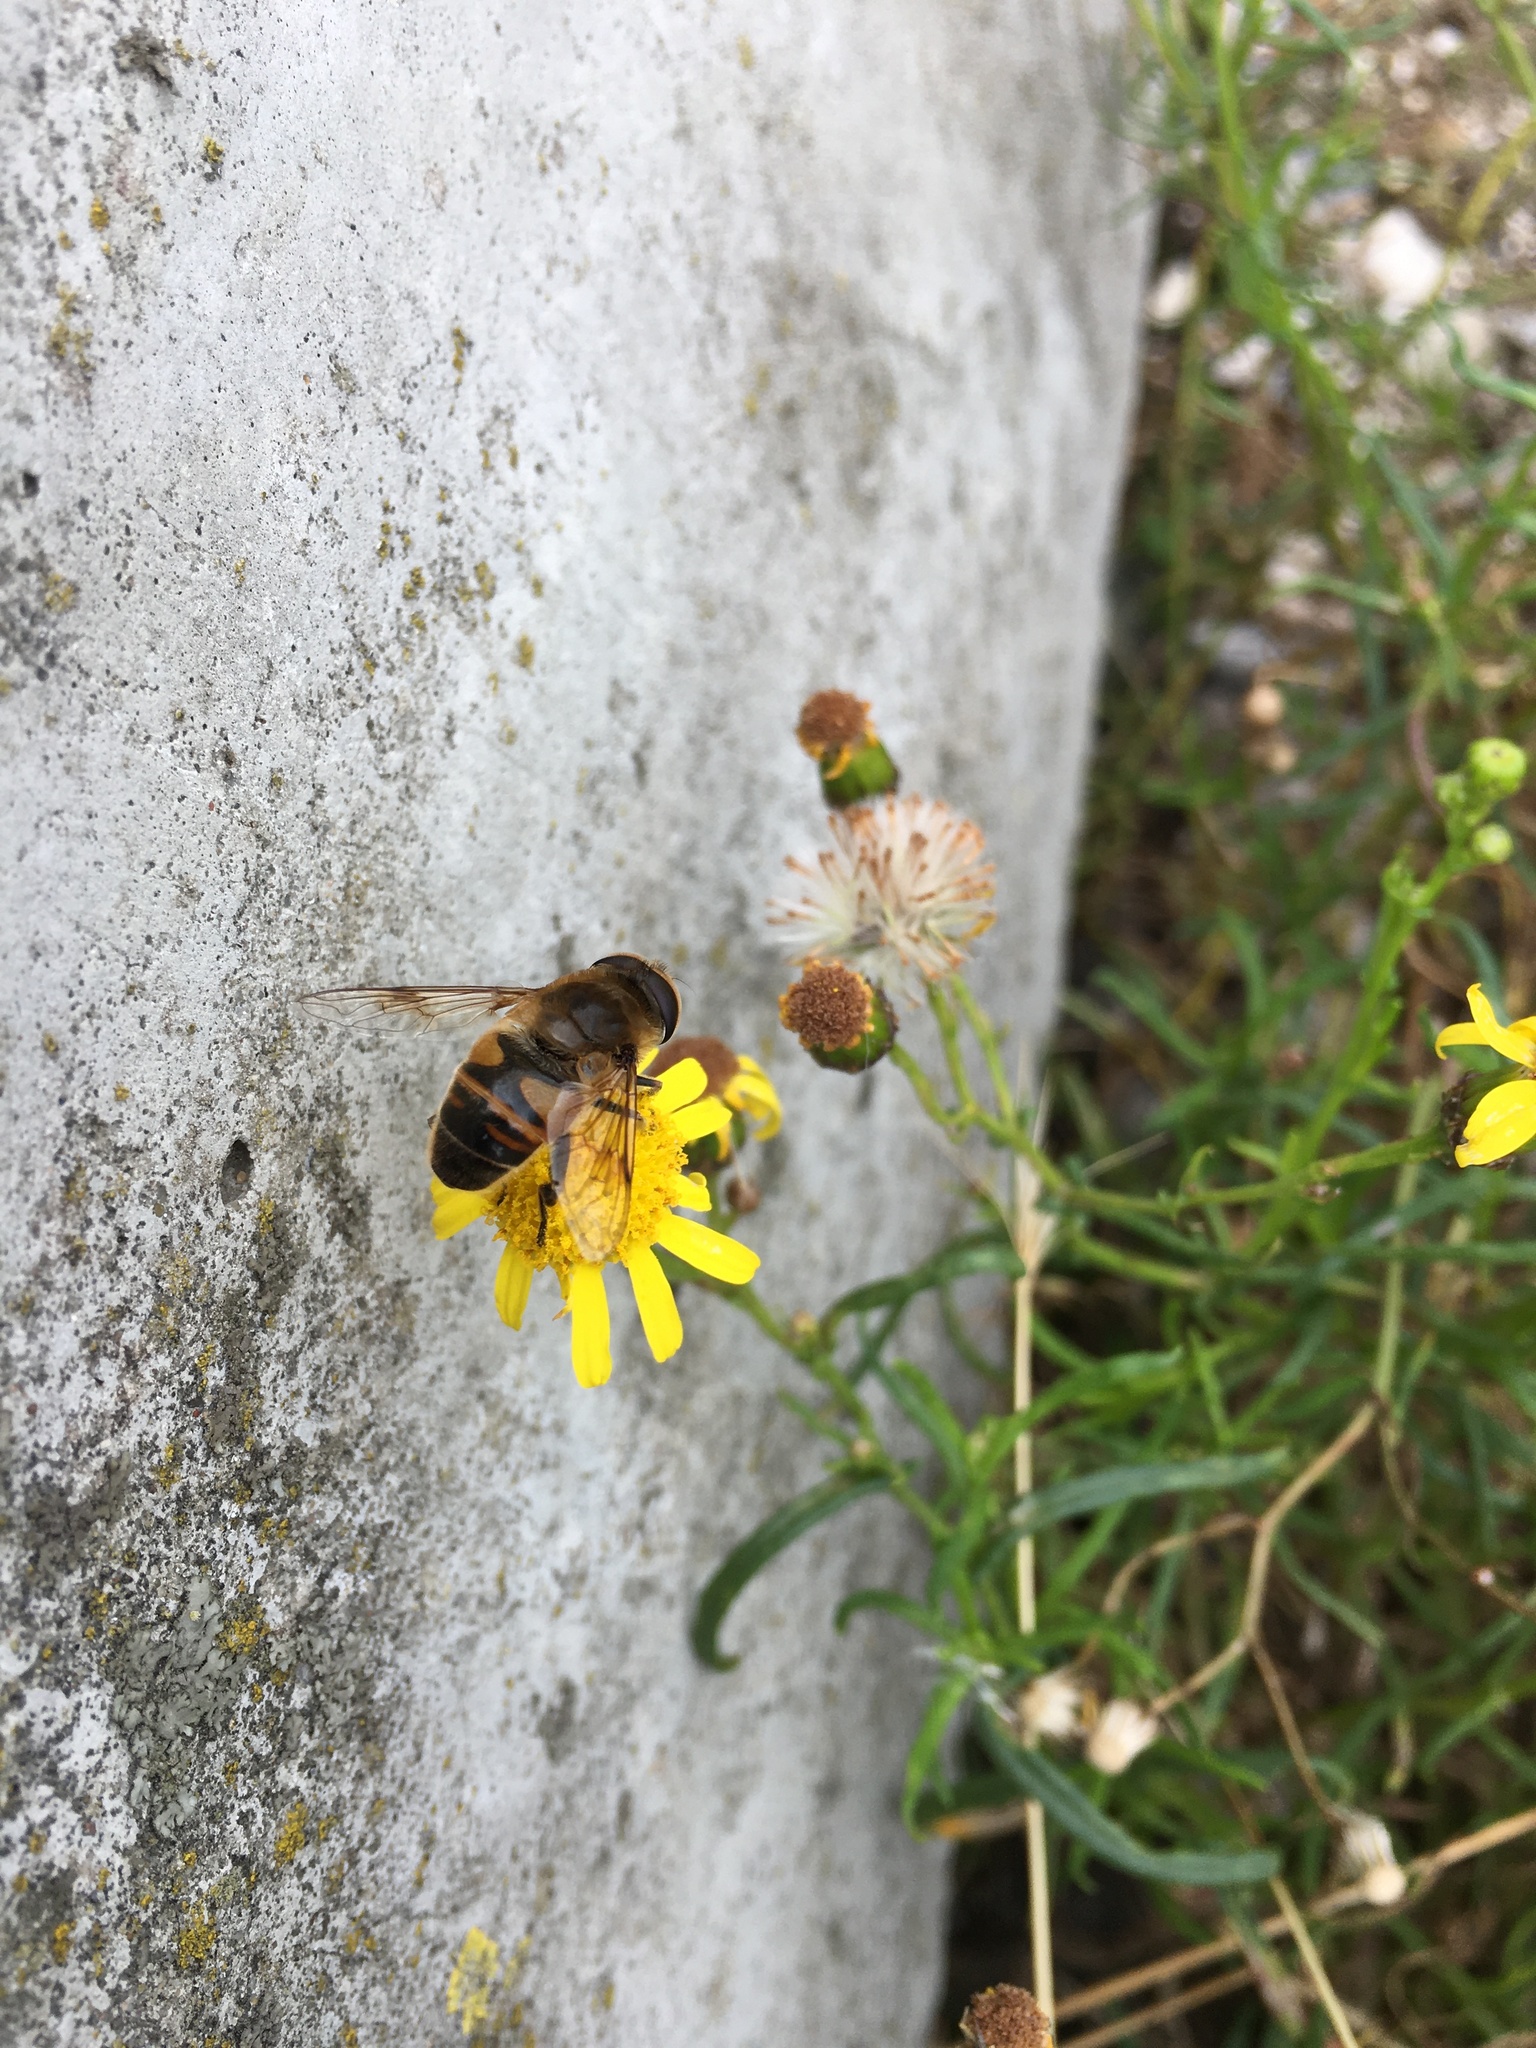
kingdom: Animalia
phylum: Arthropoda
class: Insecta
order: Diptera
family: Syrphidae
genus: Eristalis
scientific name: Eristalis tenax
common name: Drone fly
